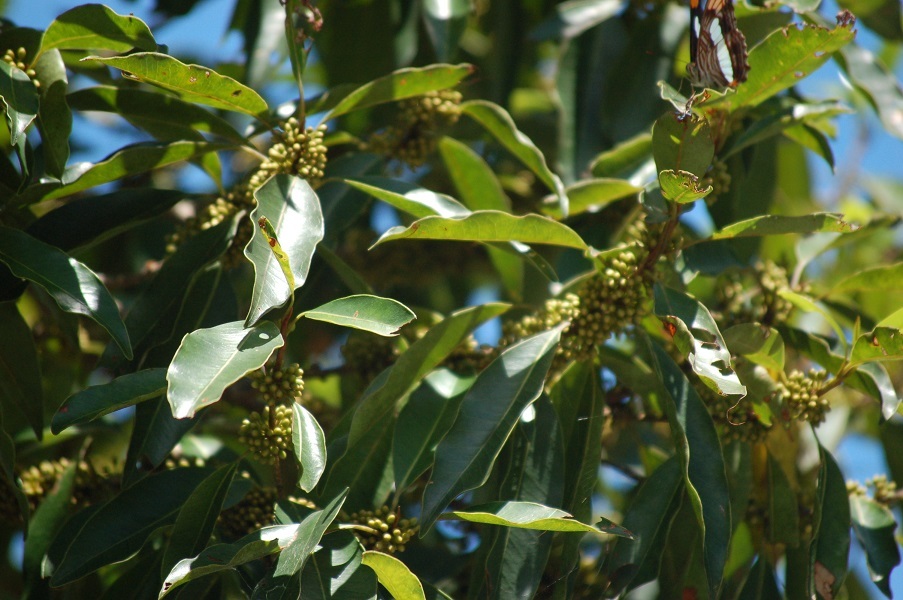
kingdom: Plantae
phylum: Tracheophyta
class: Magnoliopsida
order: Ericales
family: Sapotaceae
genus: Sideroxylon
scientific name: Sideroxylon salicifolium
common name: White bully
